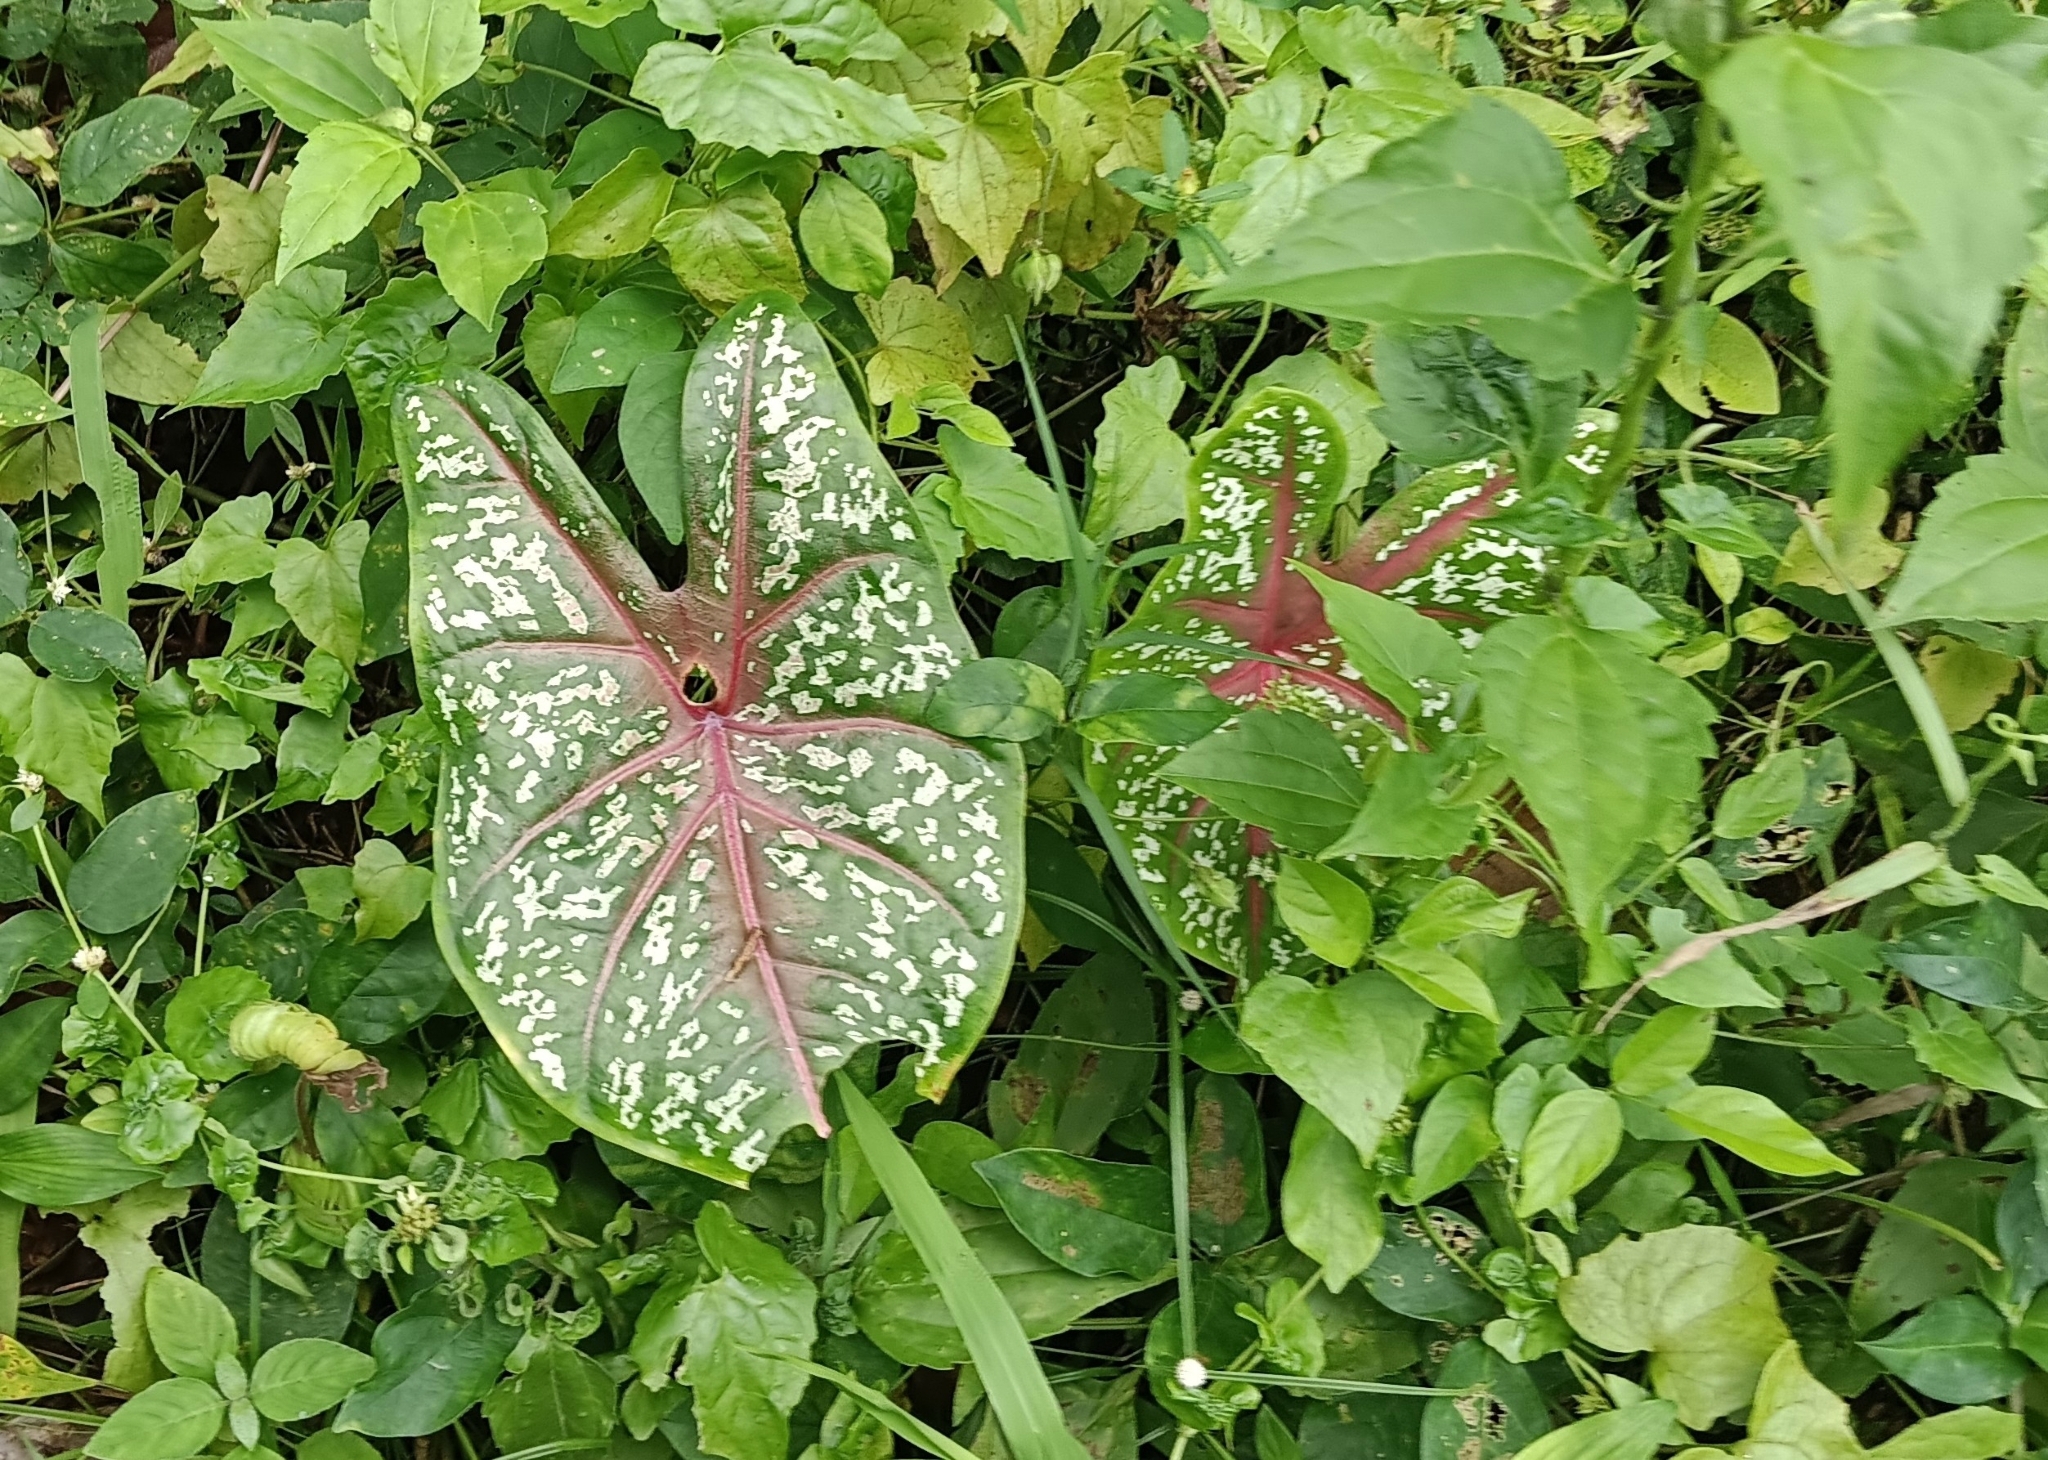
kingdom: Plantae
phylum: Tracheophyta
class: Liliopsida
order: Alismatales
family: Araceae
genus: Caladium
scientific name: Caladium bicolor
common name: Artist's pallet
